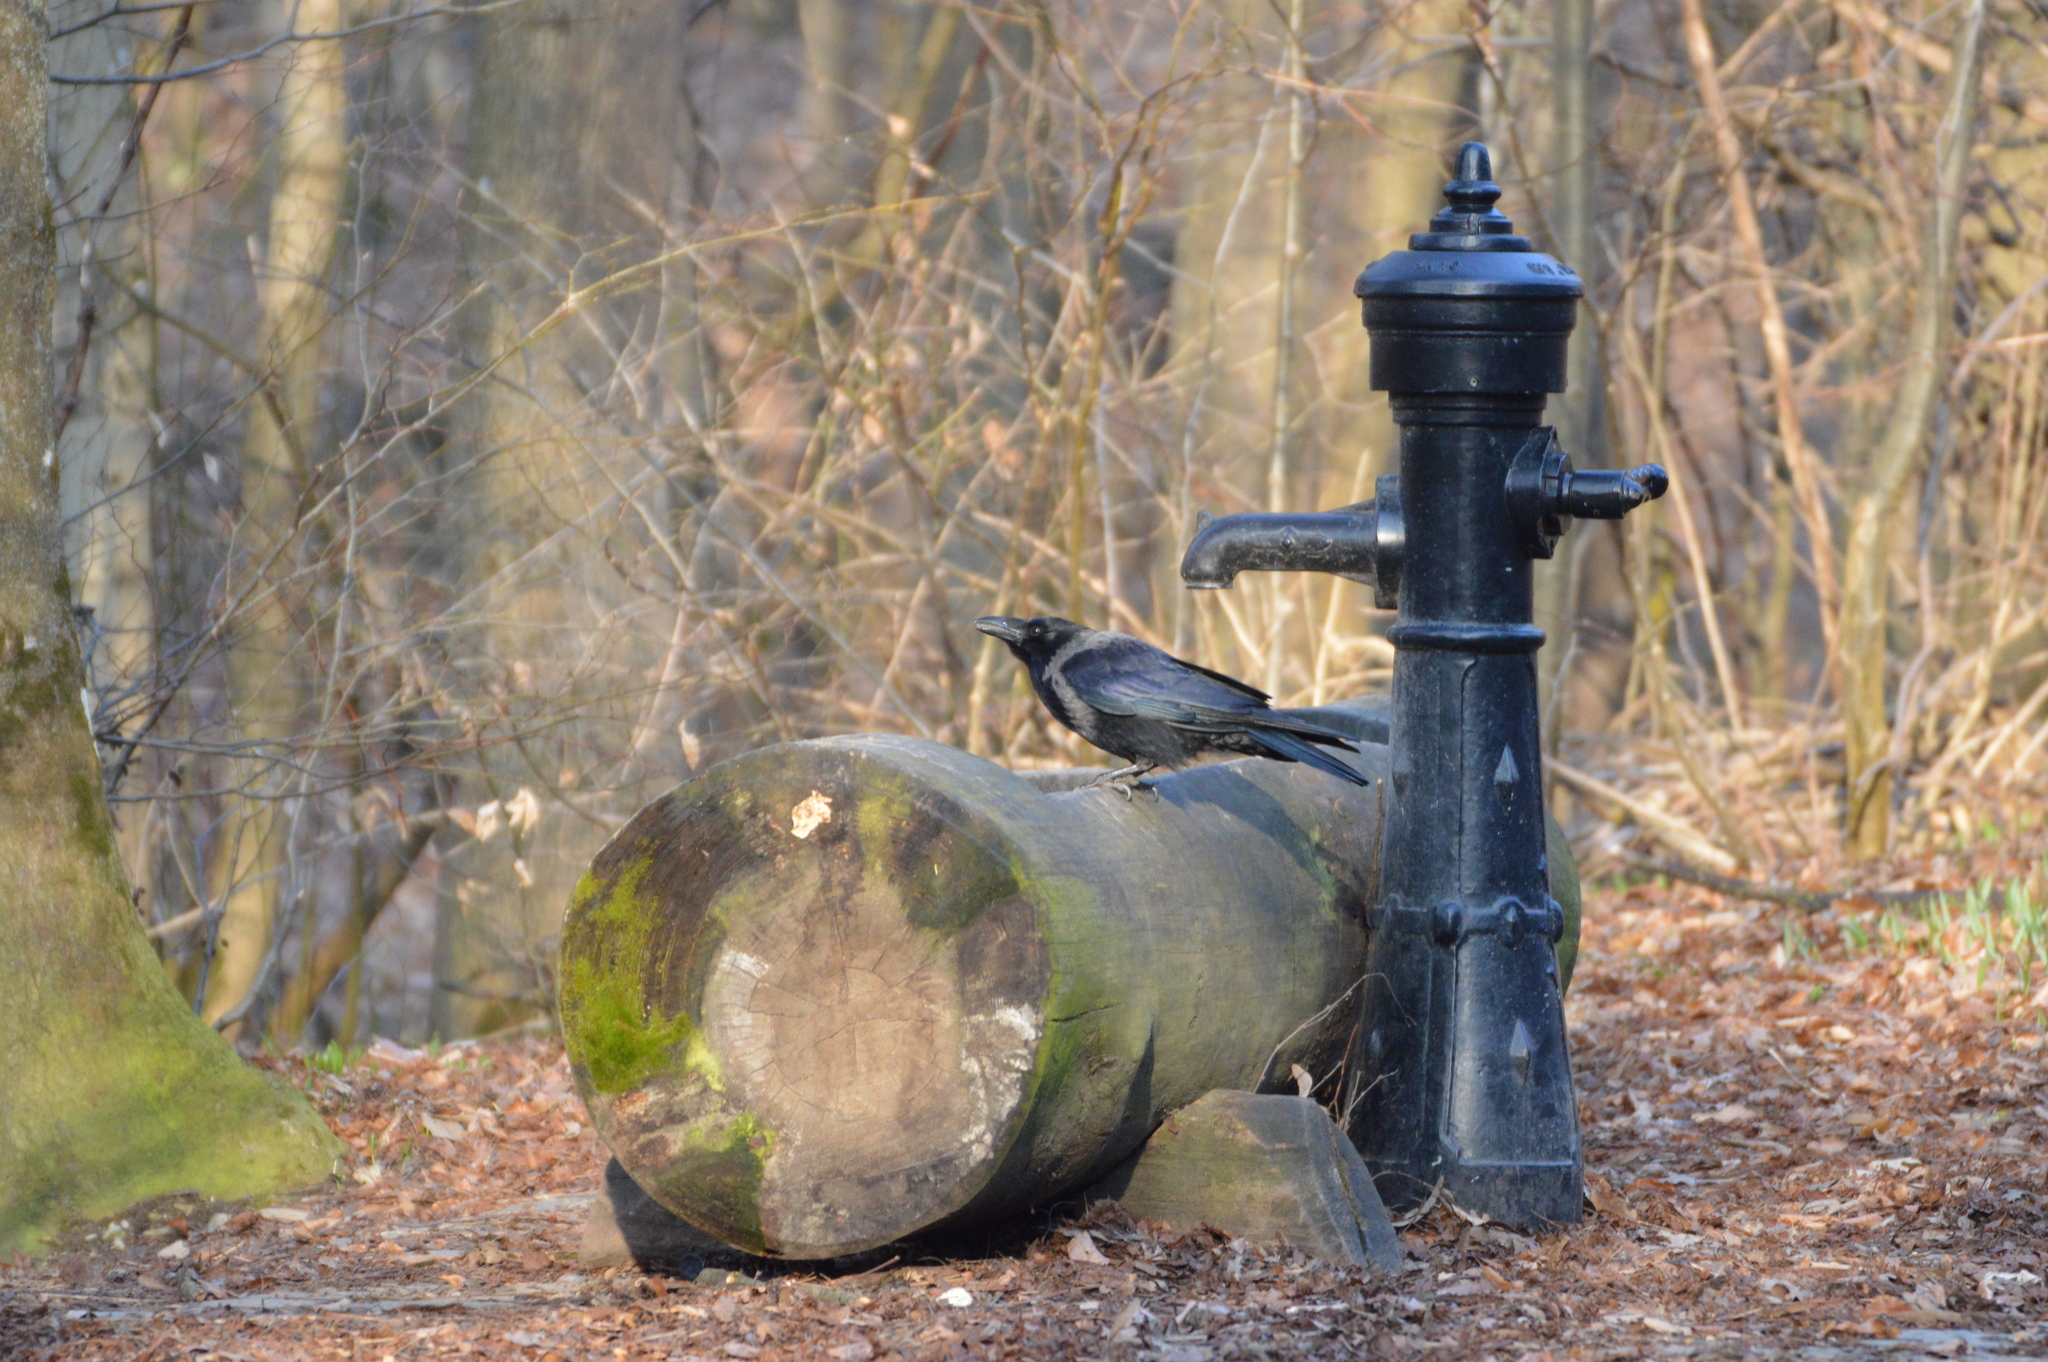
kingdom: Animalia
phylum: Chordata
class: Aves
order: Passeriformes
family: Corvidae
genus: Corvus
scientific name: Corvus
